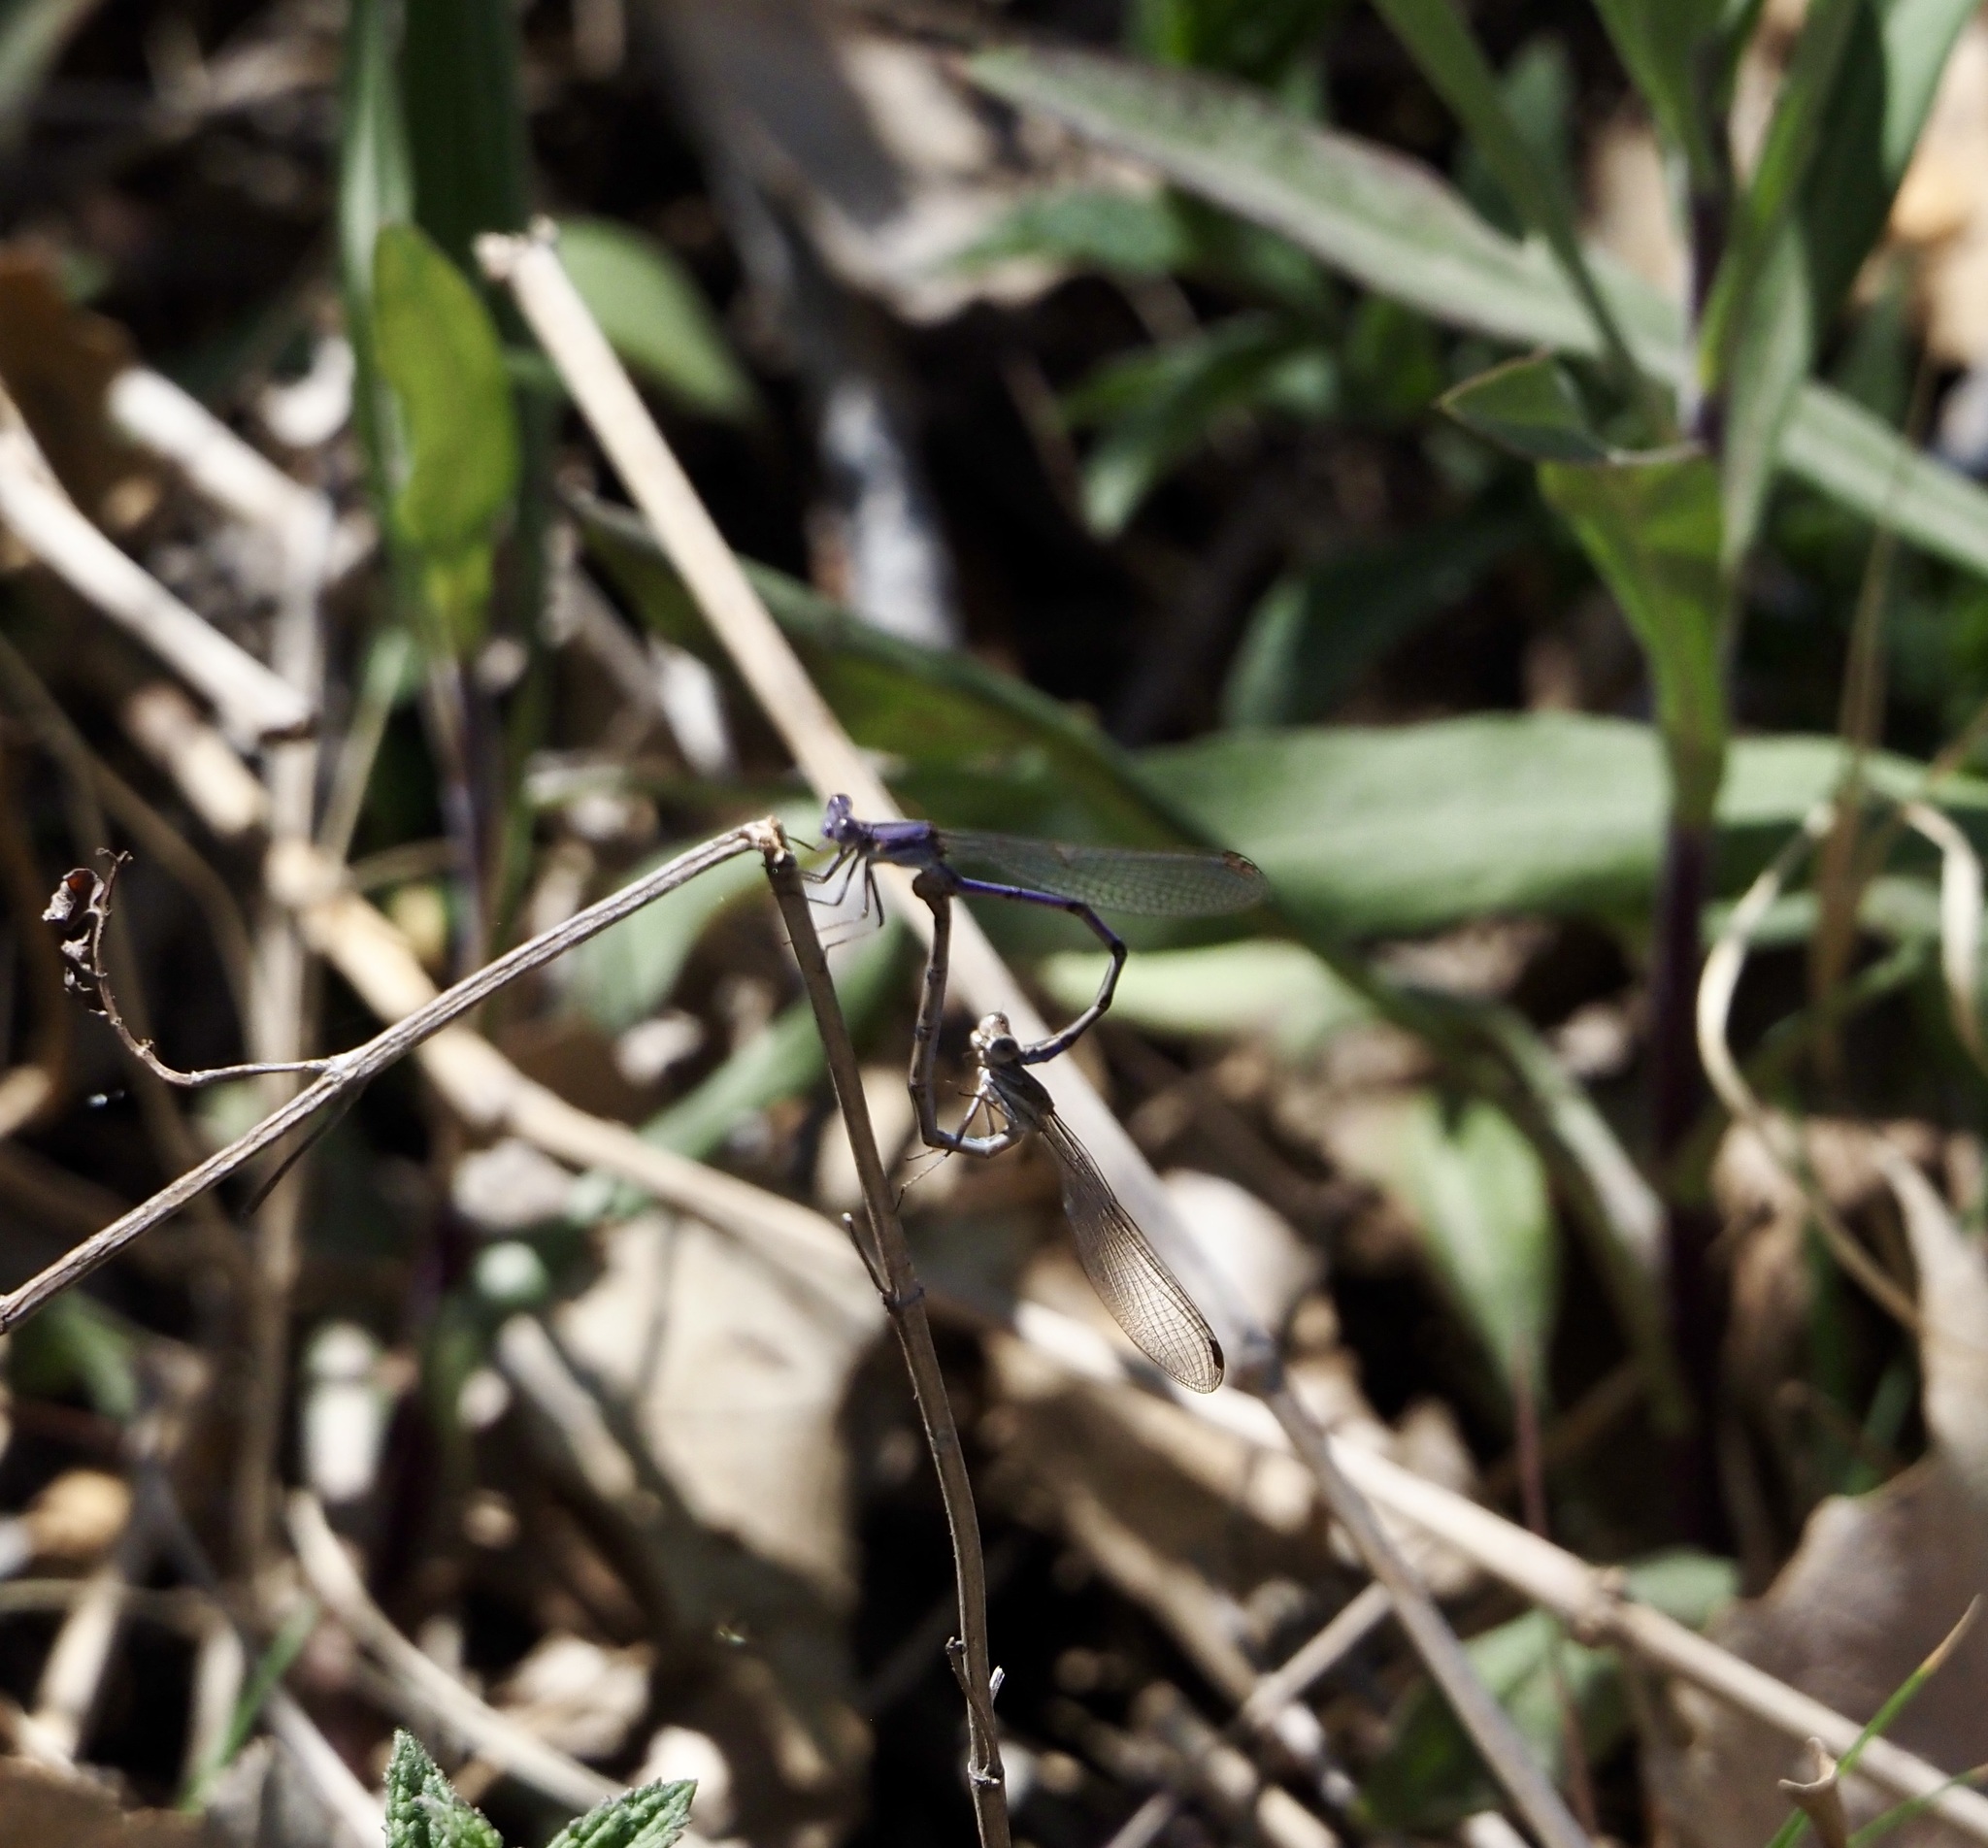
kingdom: Animalia
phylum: Arthropoda
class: Insecta
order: Odonata
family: Coenagrionidae
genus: Argia
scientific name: Argia fumipennis
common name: Variable dancer
